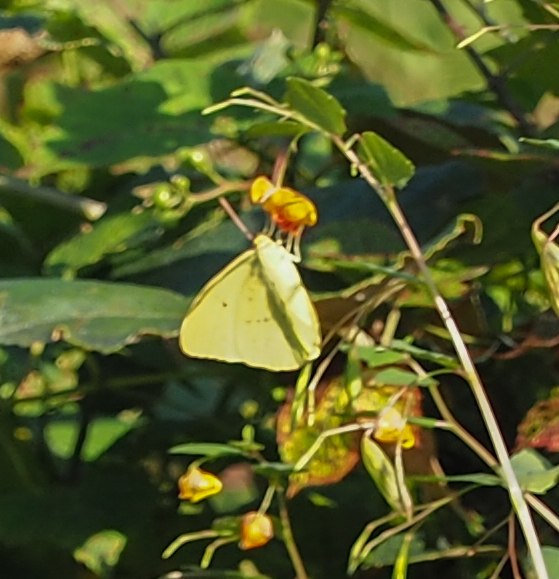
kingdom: Animalia
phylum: Arthropoda
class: Insecta
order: Lepidoptera
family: Pieridae
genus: Phoebis
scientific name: Phoebis sennae
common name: Cloudless sulphur
